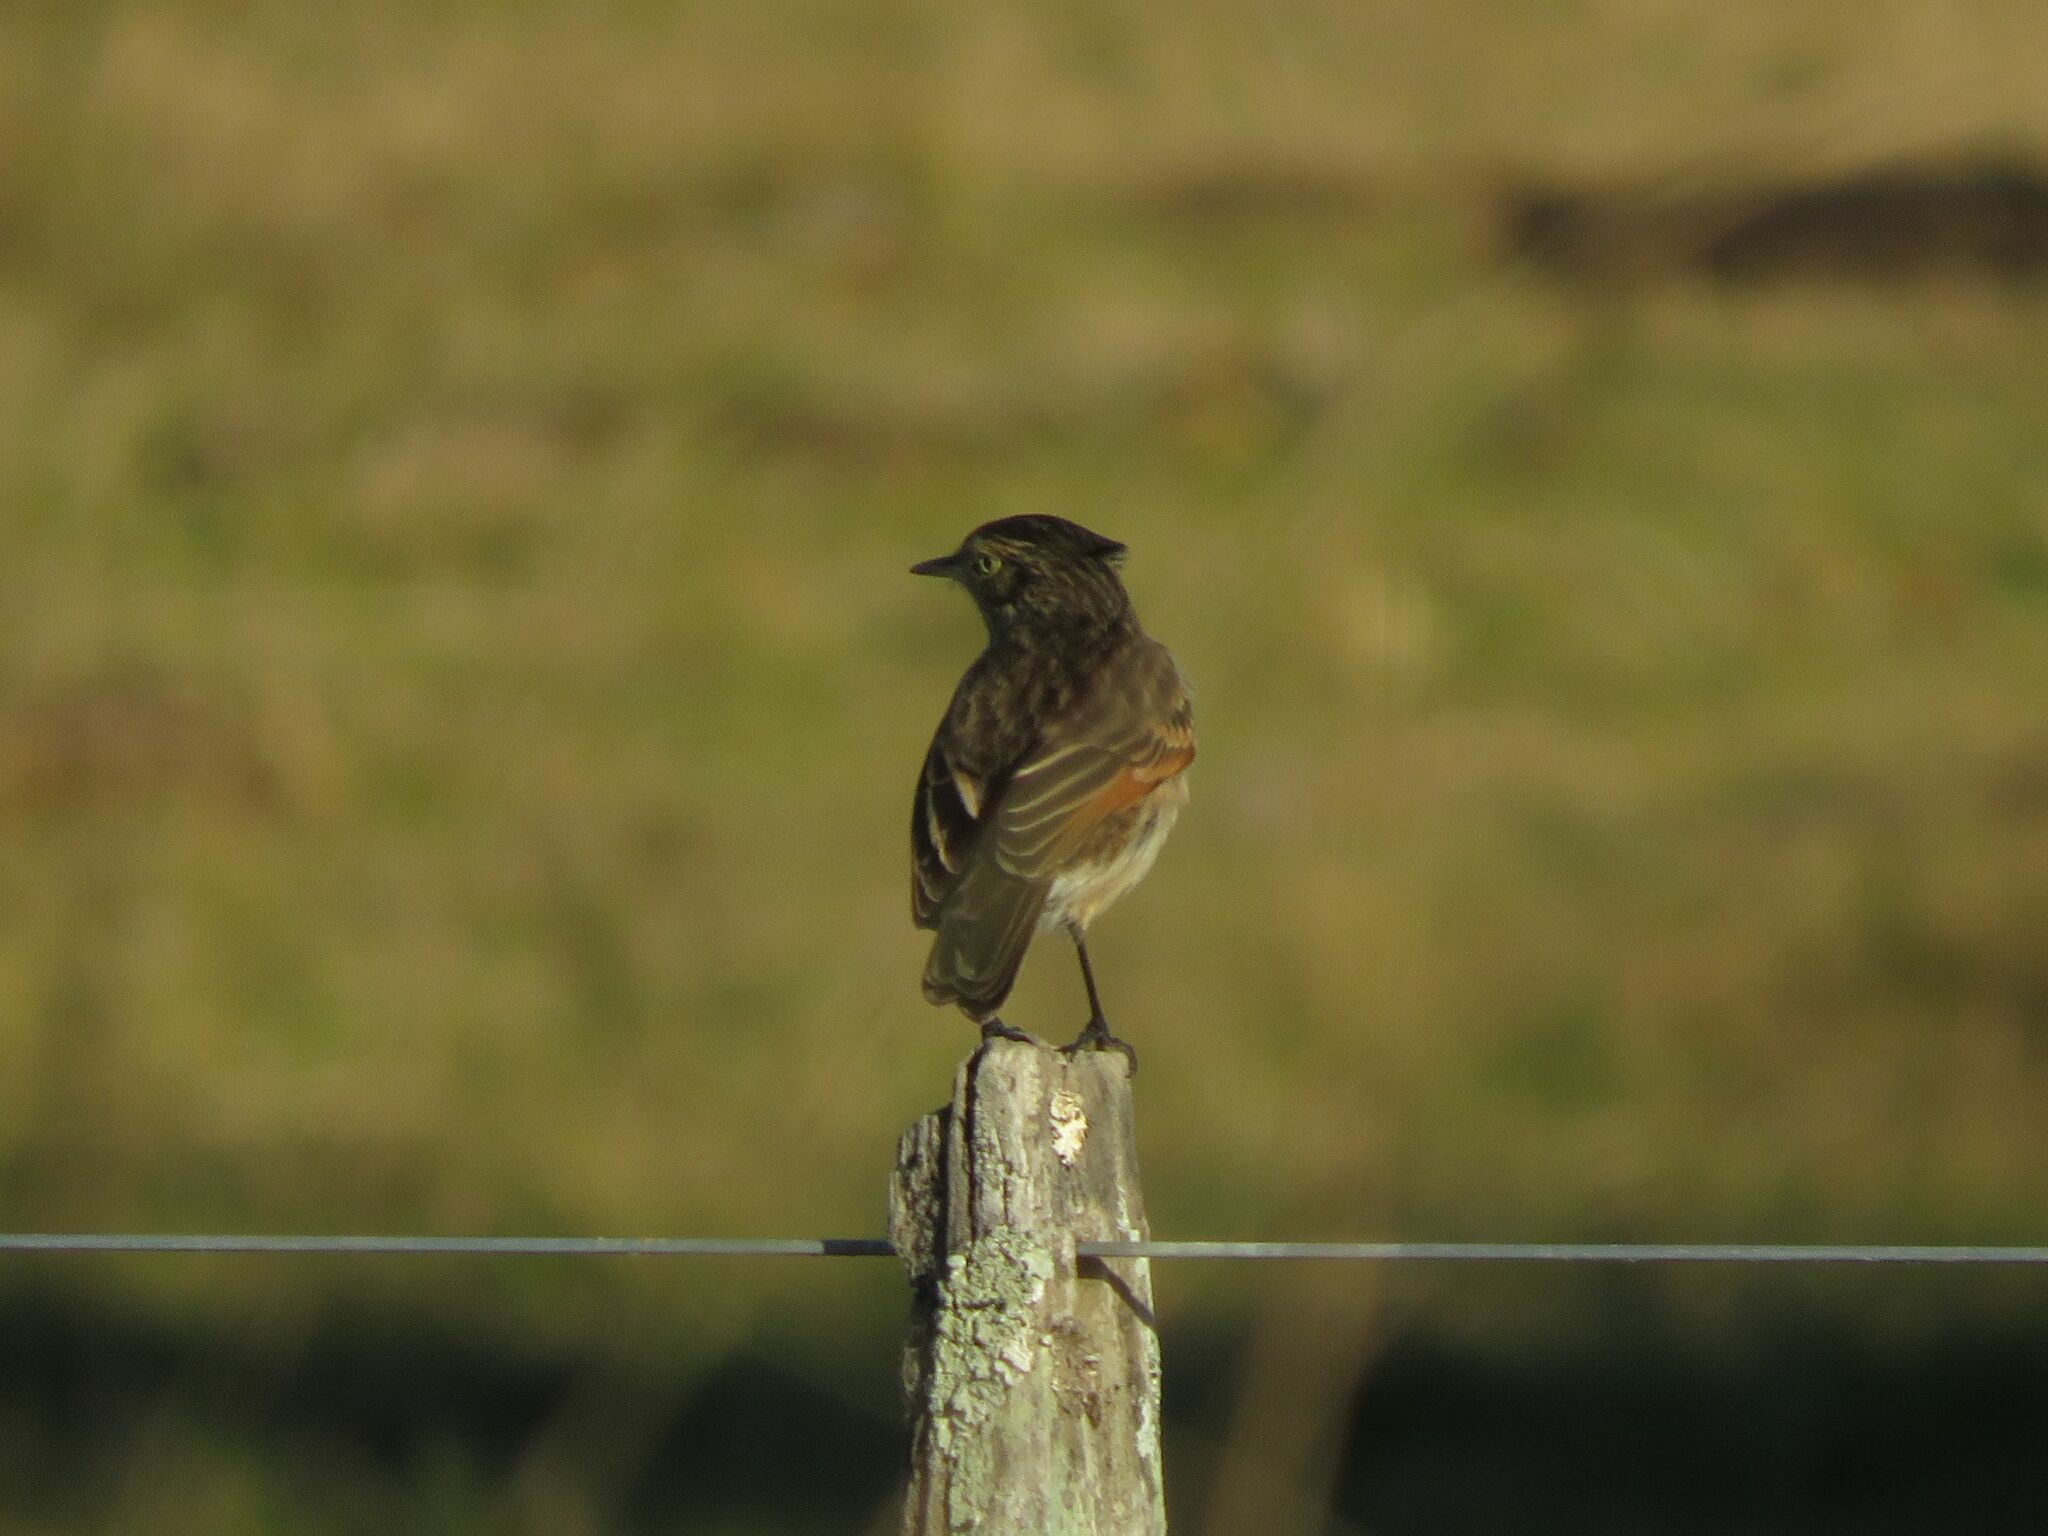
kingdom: Animalia
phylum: Chordata
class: Aves
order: Passeriformes
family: Tyrannidae
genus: Hymenops
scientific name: Hymenops perspicillatus
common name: Spectacled tyrant
